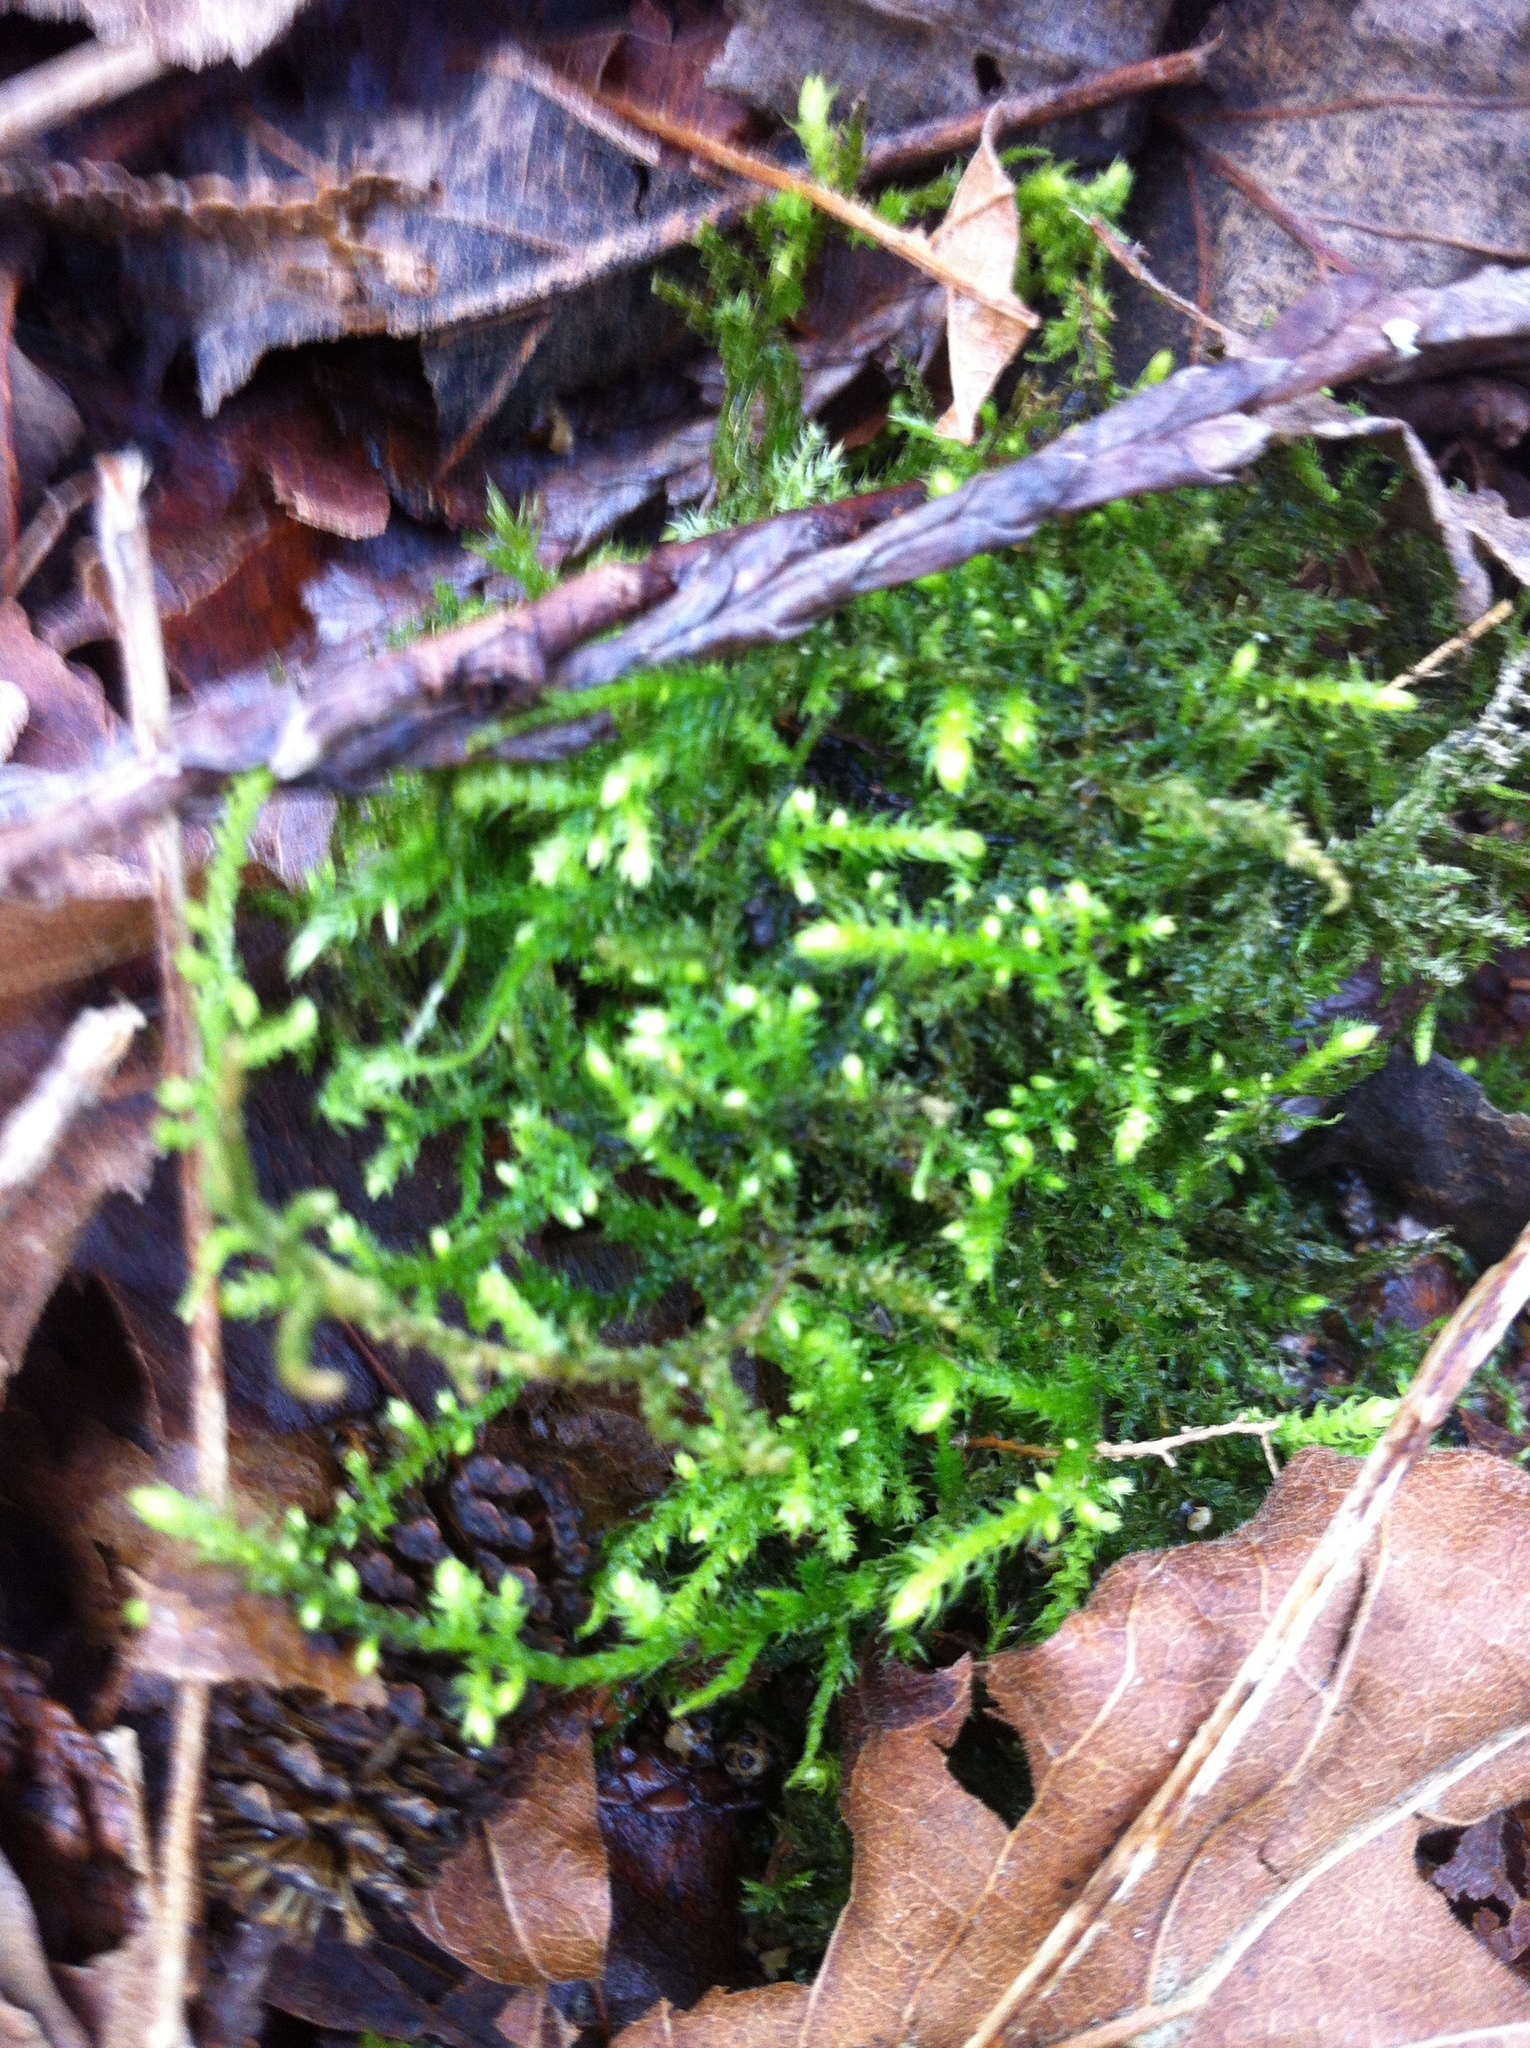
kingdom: Plantae
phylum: Bryophyta
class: Bryopsida
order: Hypnales
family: Brachytheciaceae
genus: Claopodium
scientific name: Claopodium crispifolium
